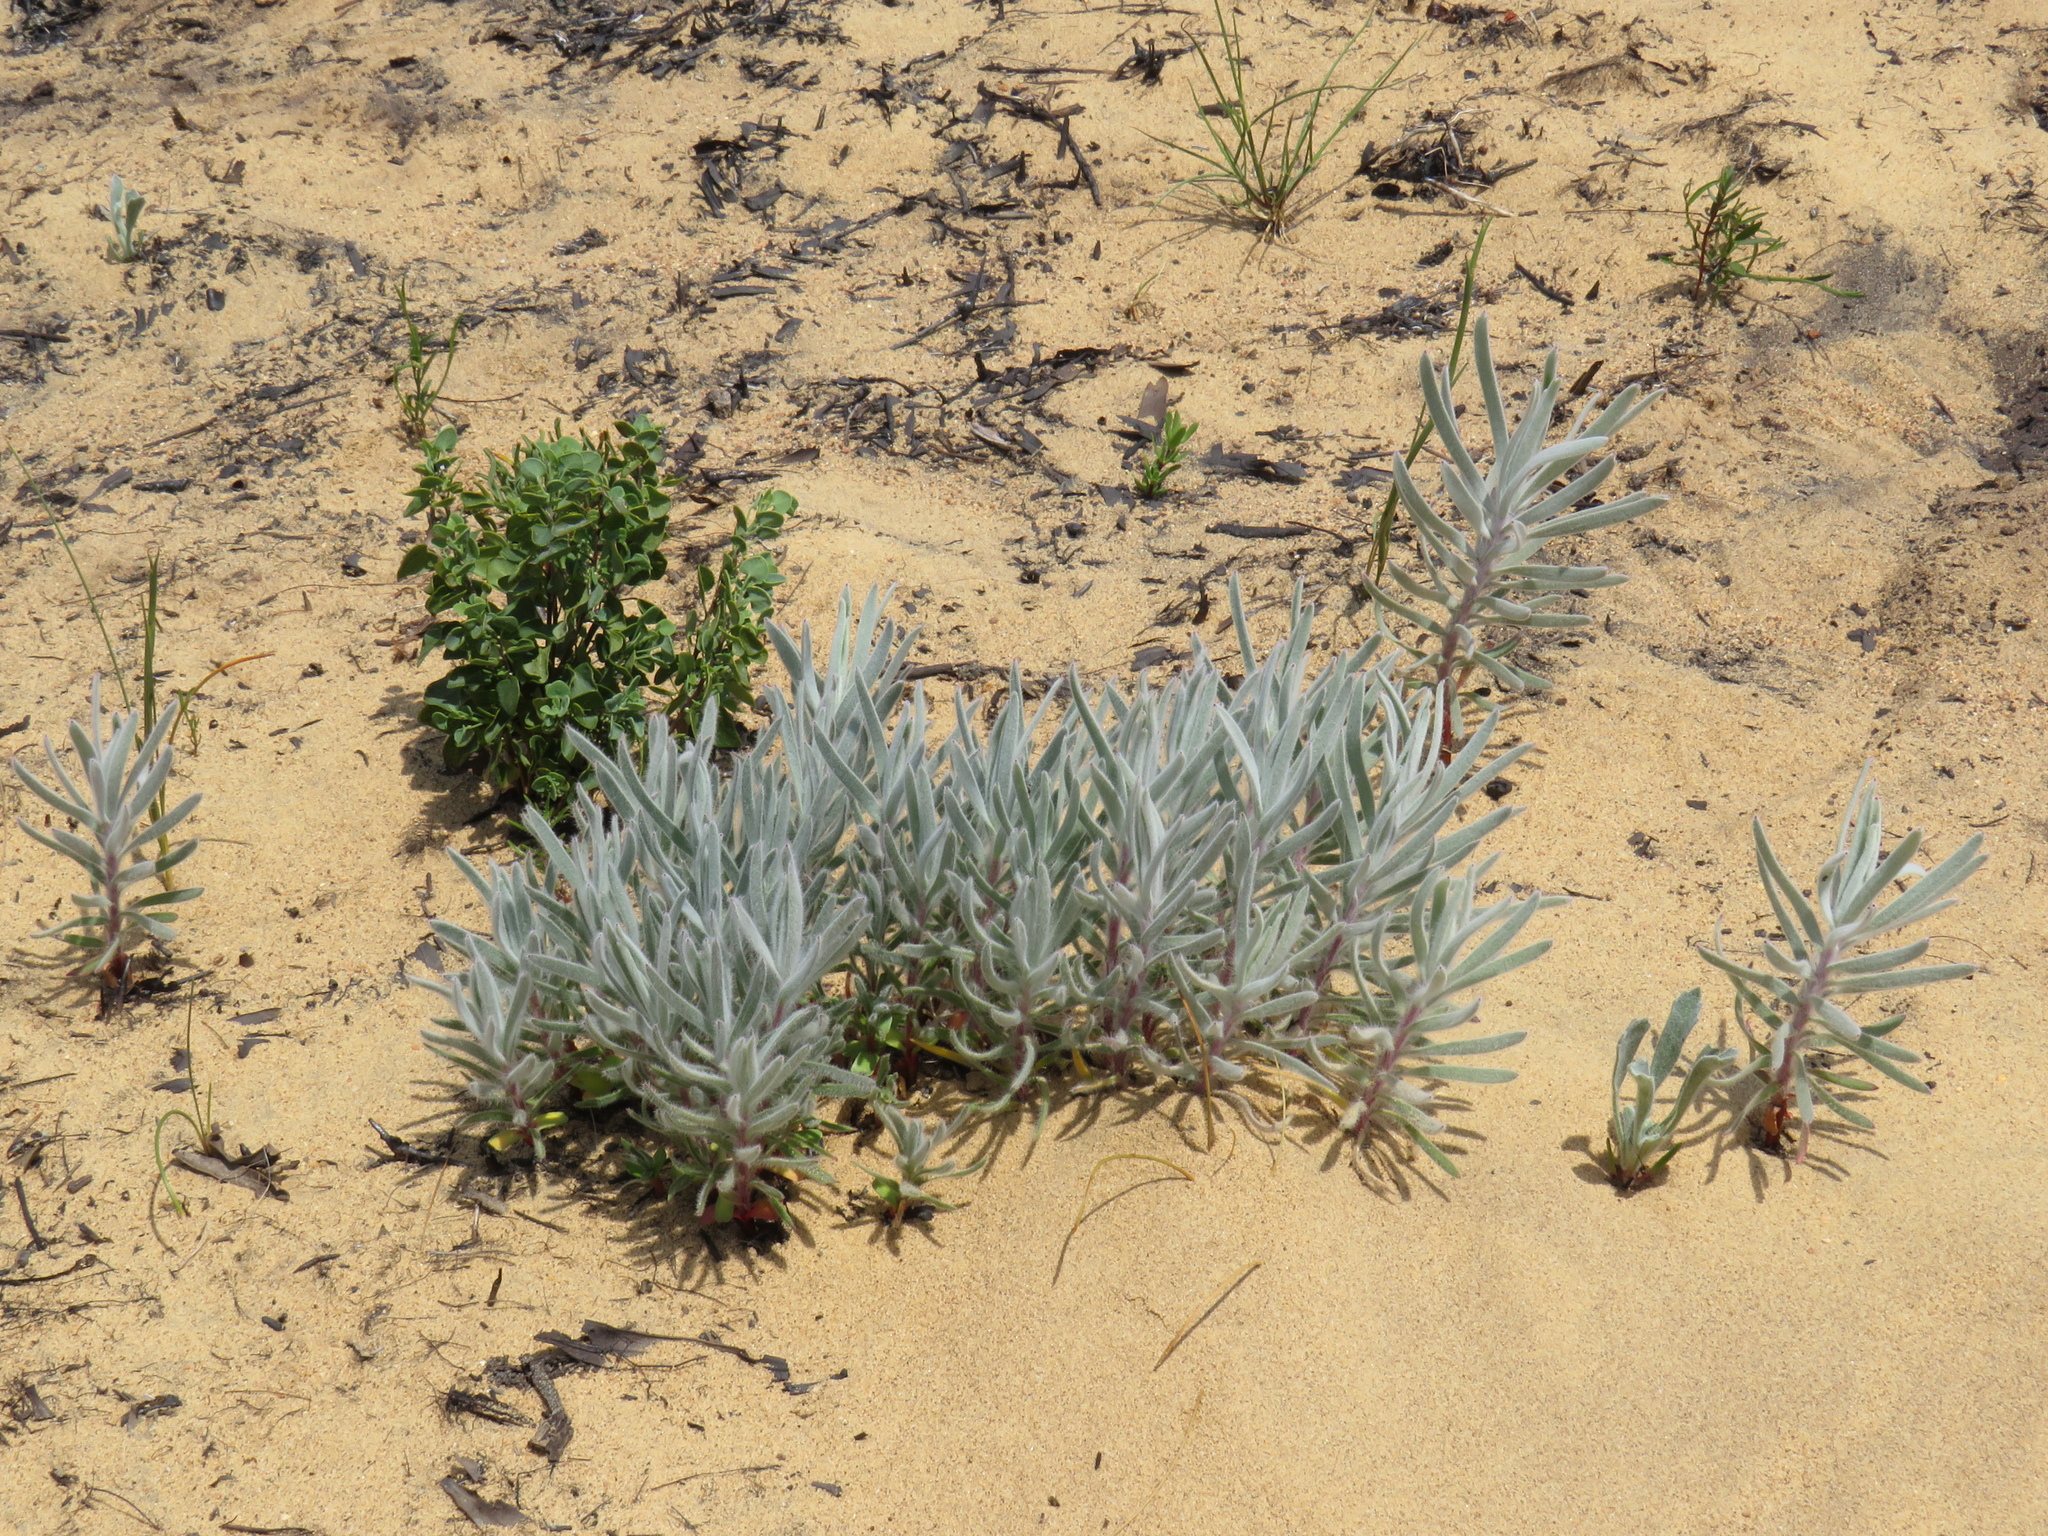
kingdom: Plantae
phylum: Tracheophyta
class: Magnoliopsida
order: Proteales
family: Proteaceae
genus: Leucospermum
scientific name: Leucospermum parile
